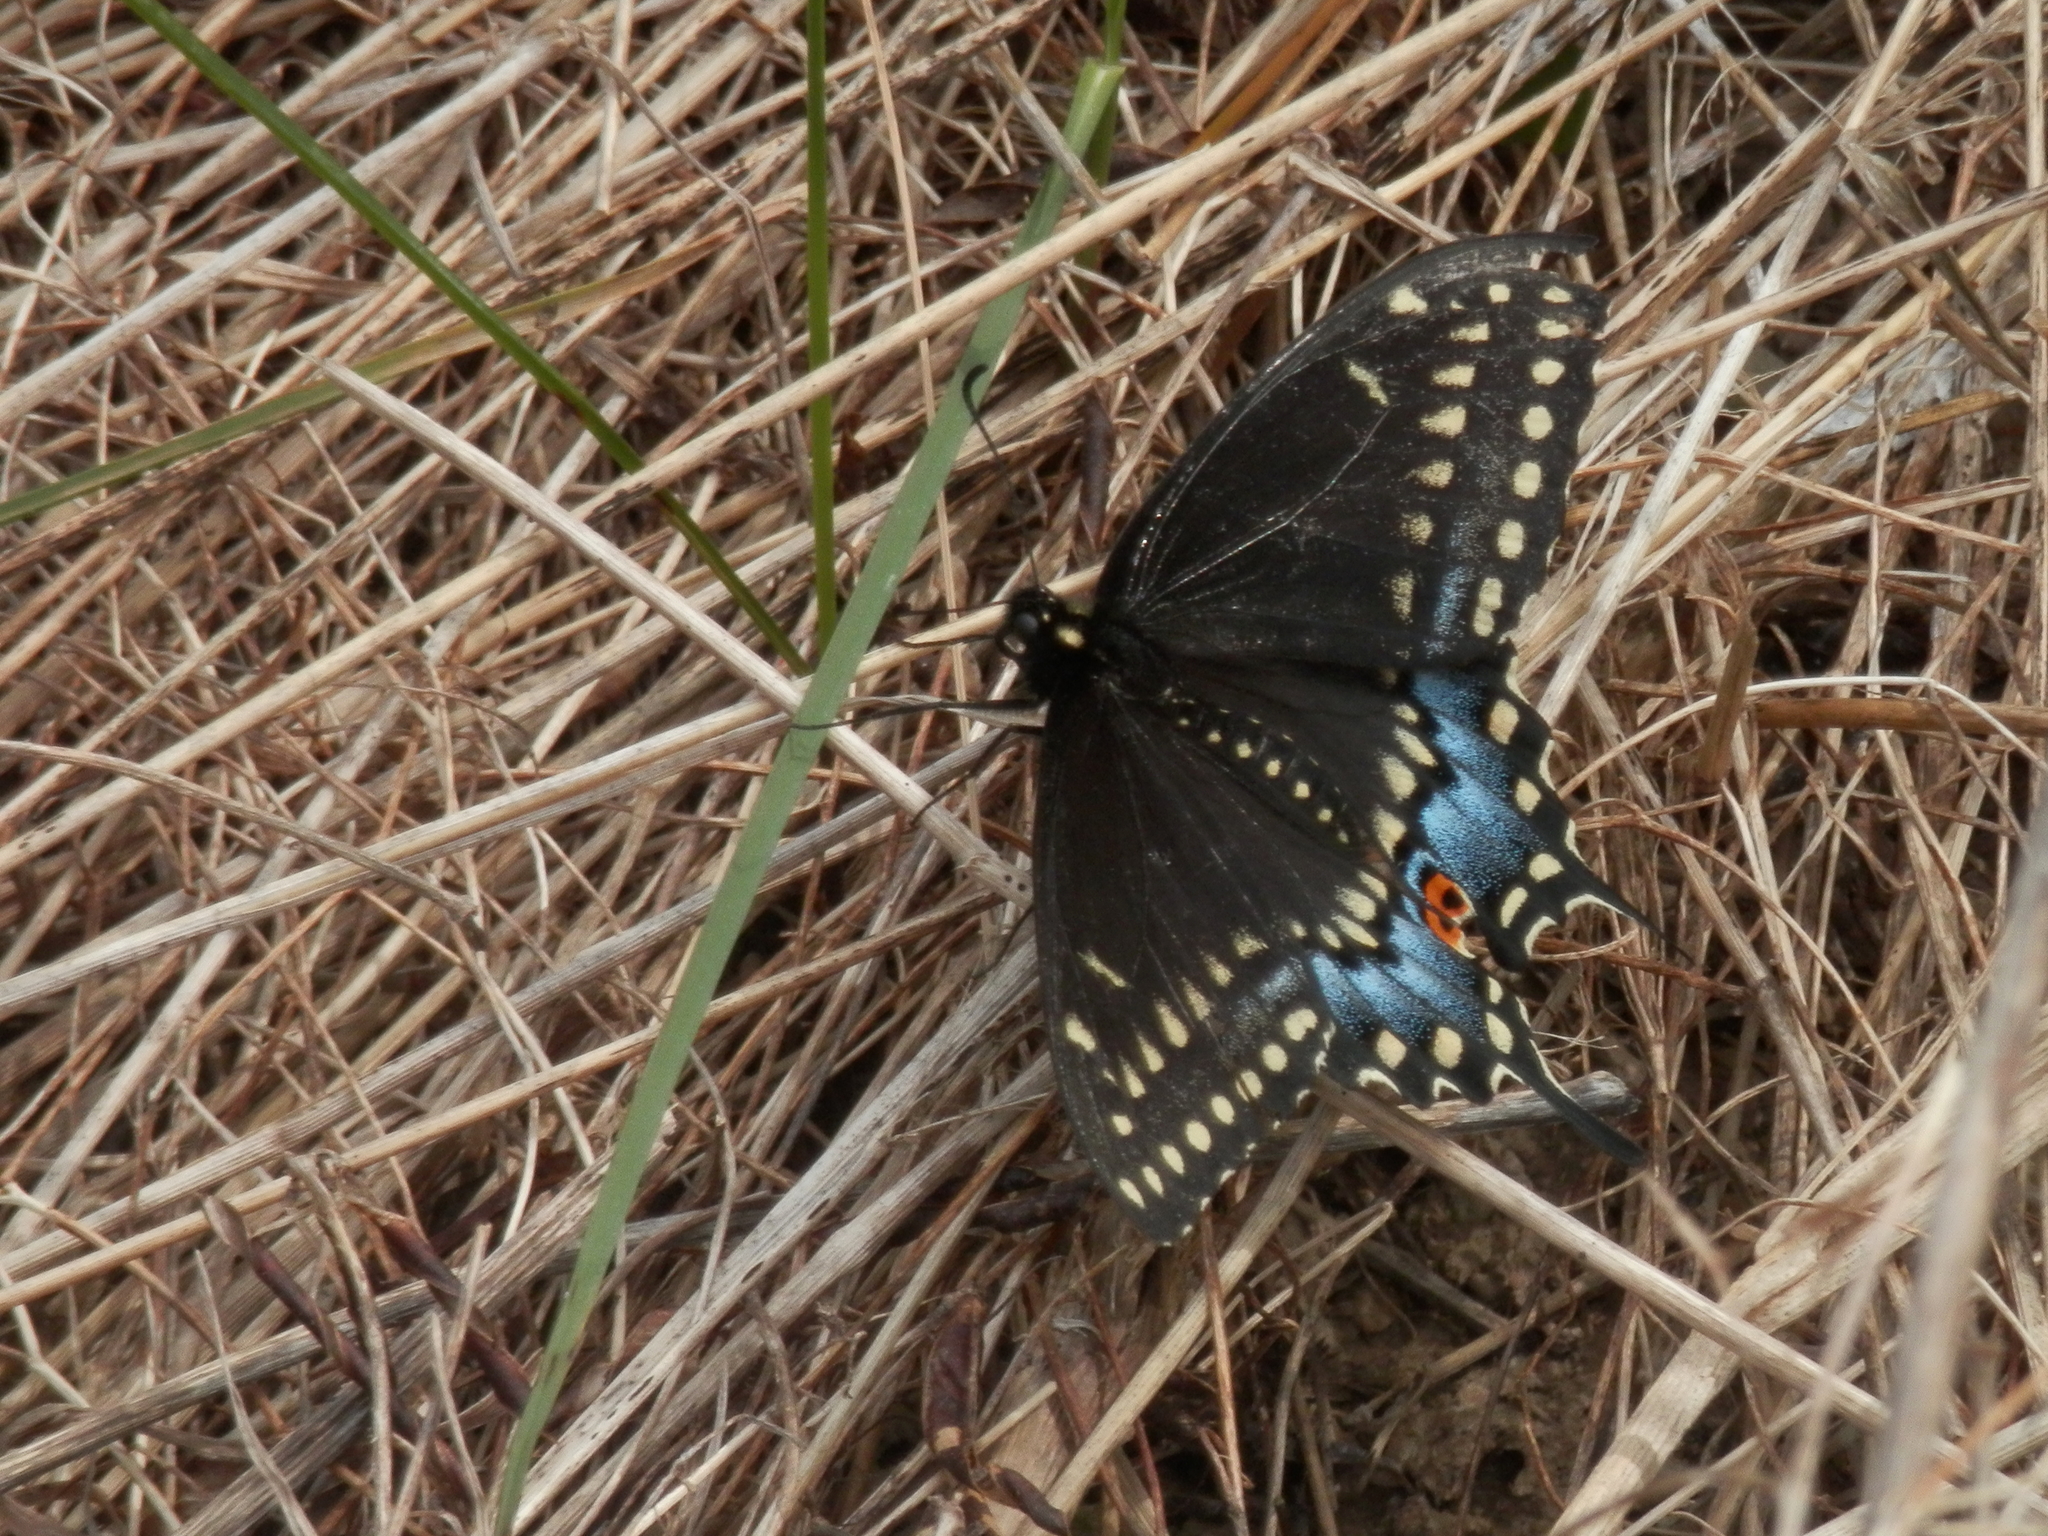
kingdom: Animalia
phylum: Arthropoda
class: Insecta
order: Lepidoptera
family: Papilionidae
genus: Papilio
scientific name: Papilio polyxenes
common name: Black swallowtail
